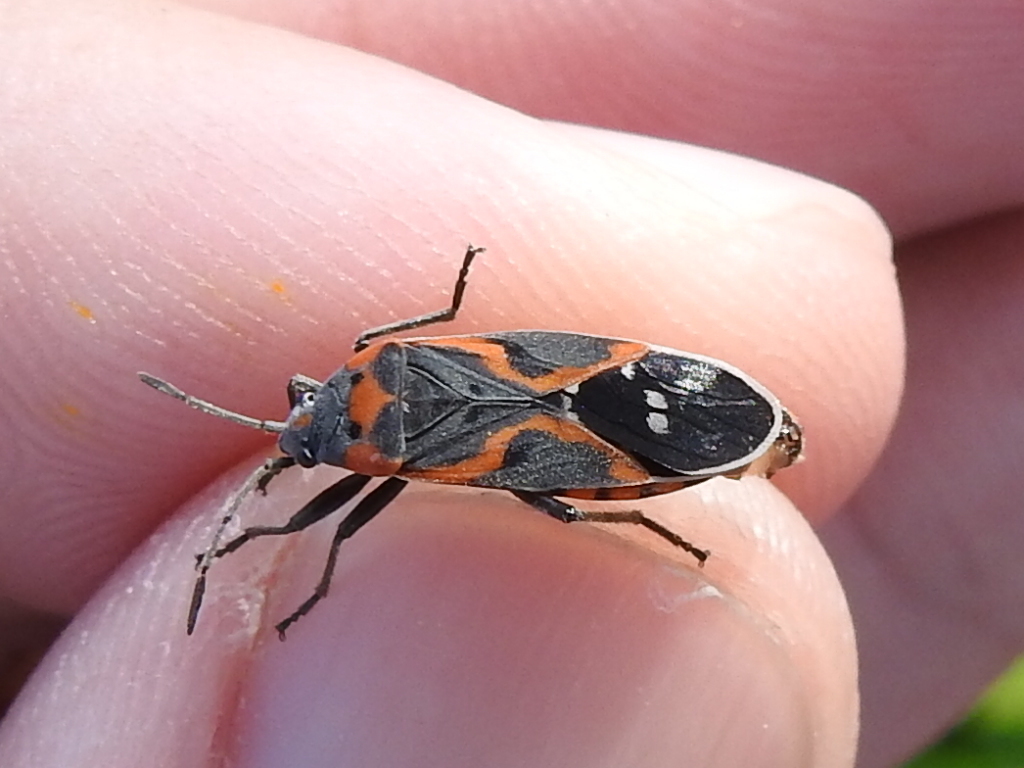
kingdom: Animalia
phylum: Arthropoda
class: Insecta
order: Hemiptera
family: Lygaeidae
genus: Lygaeus
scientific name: Lygaeus kalmii
